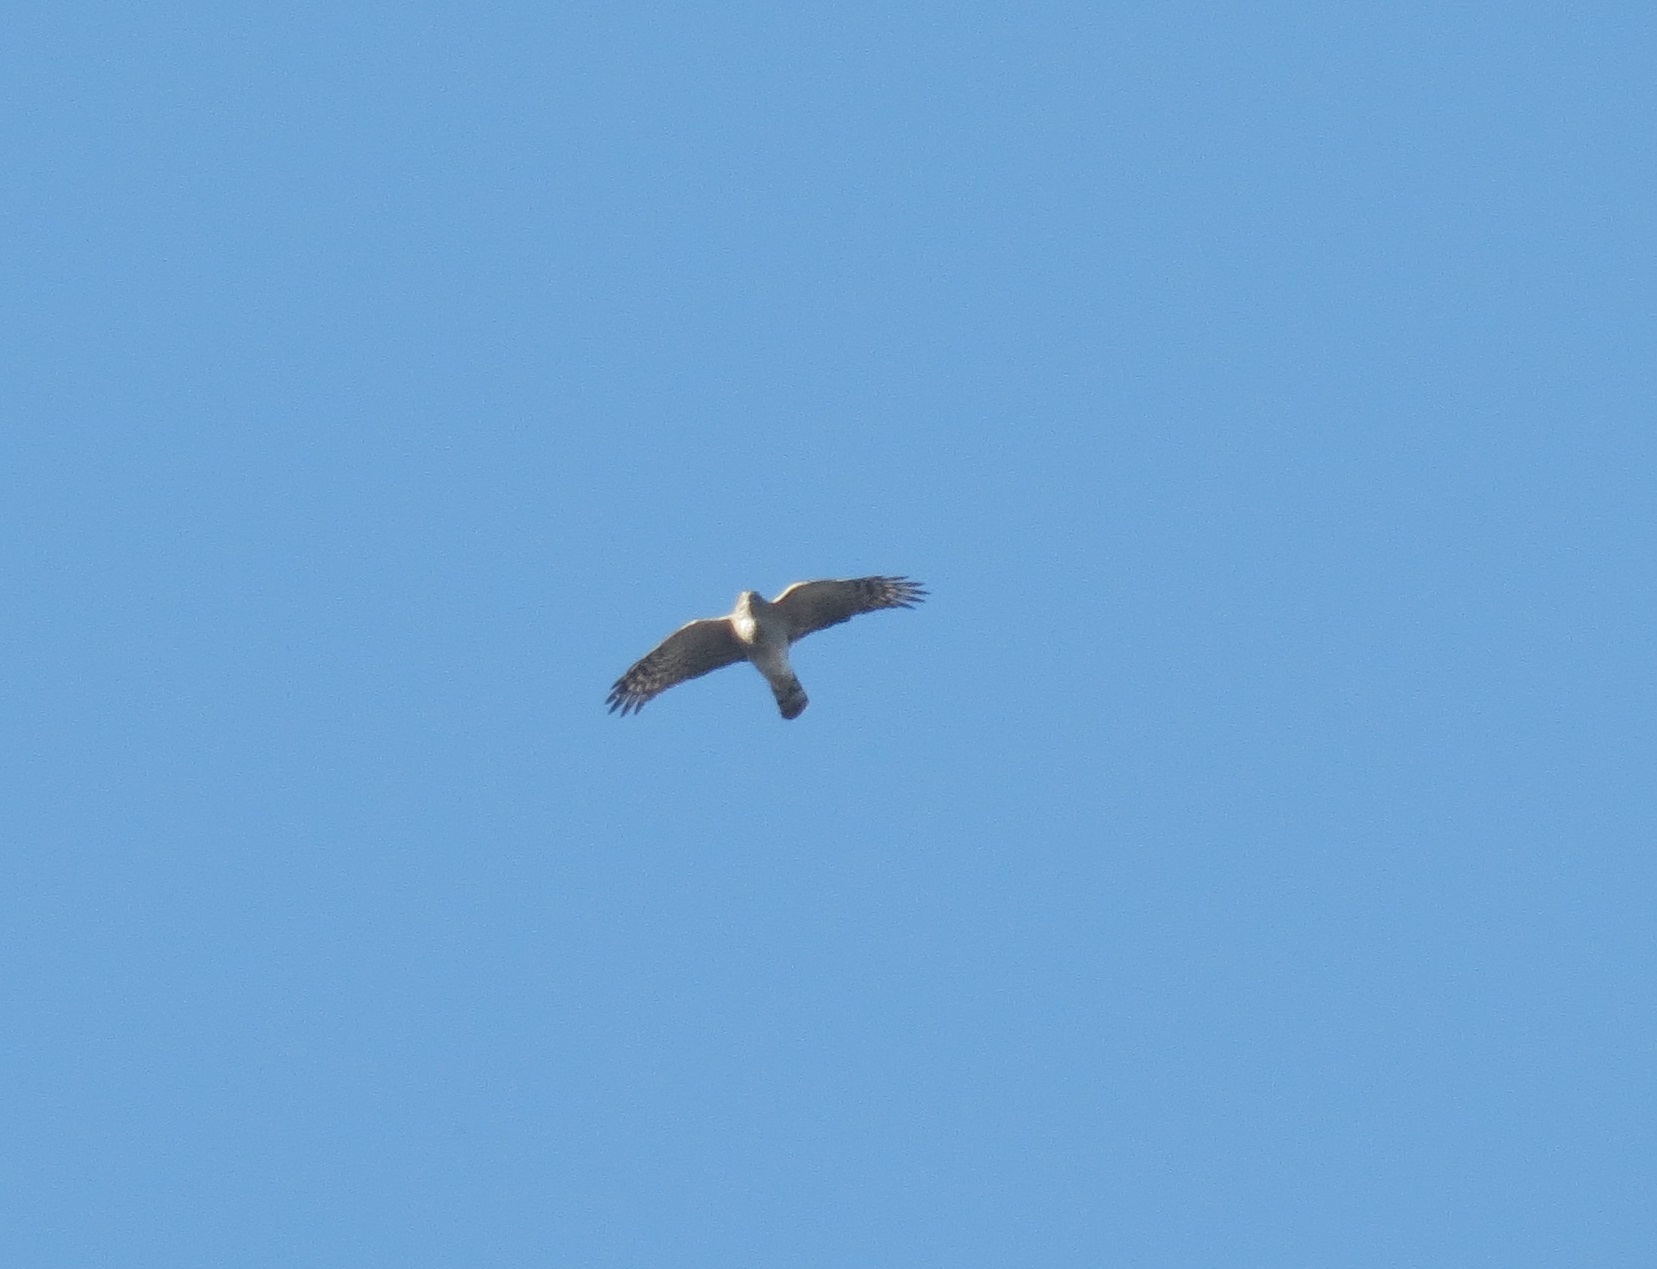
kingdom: Animalia
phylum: Chordata
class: Aves
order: Accipitriformes
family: Accipitridae
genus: Accipiter
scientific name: Accipiter cooperii
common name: Cooper's hawk
